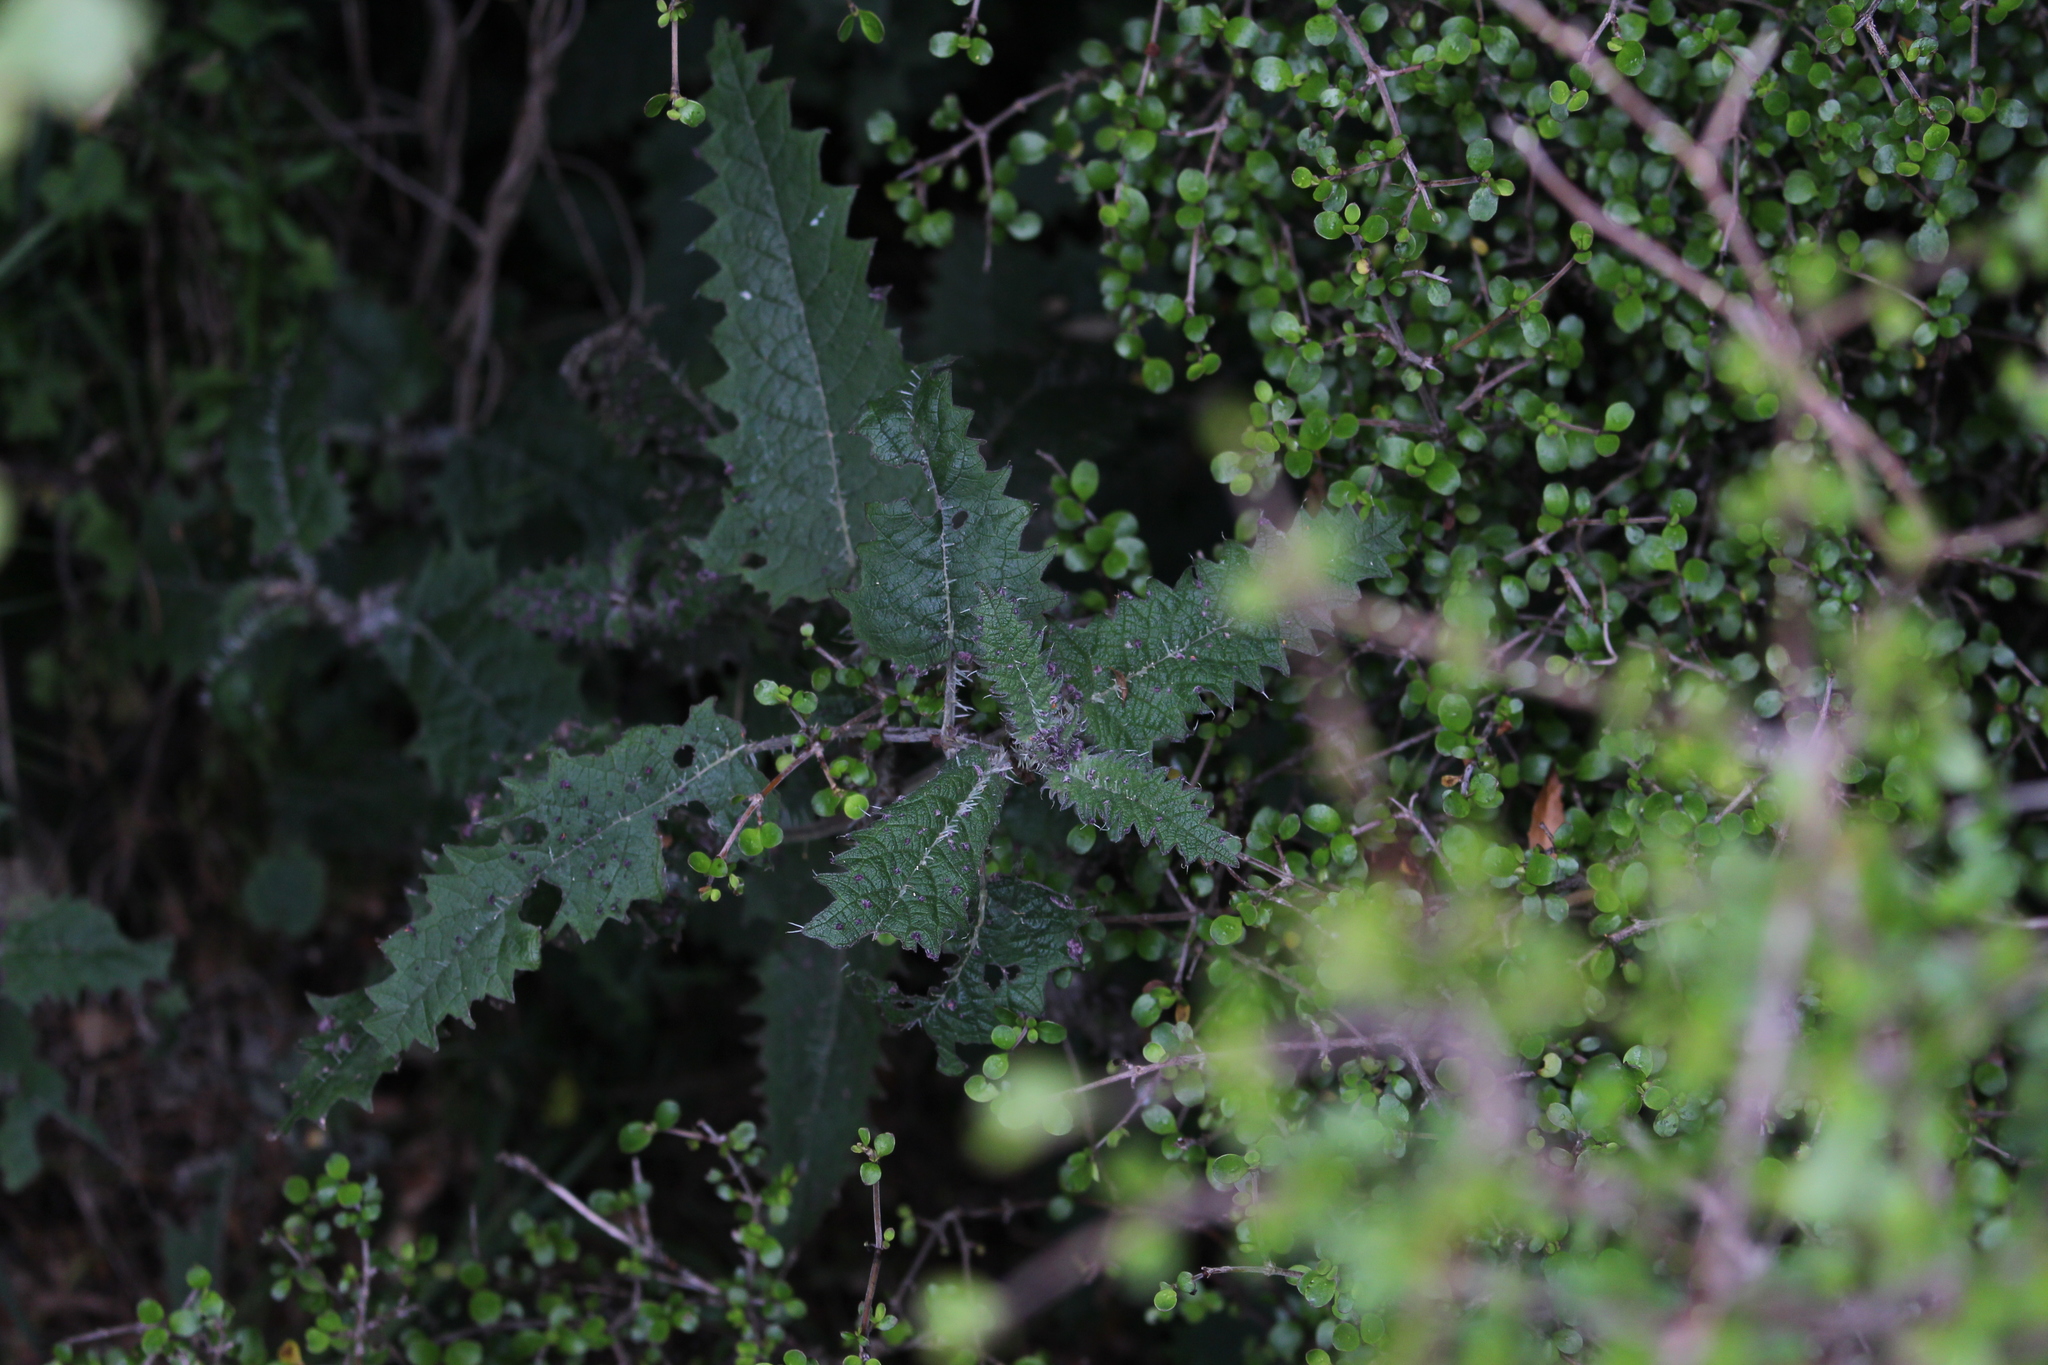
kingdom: Plantae
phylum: Tracheophyta
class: Magnoliopsida
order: Rosales
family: Urticaceae
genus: Urtica
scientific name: Urtica ferox
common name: Tree nettle
